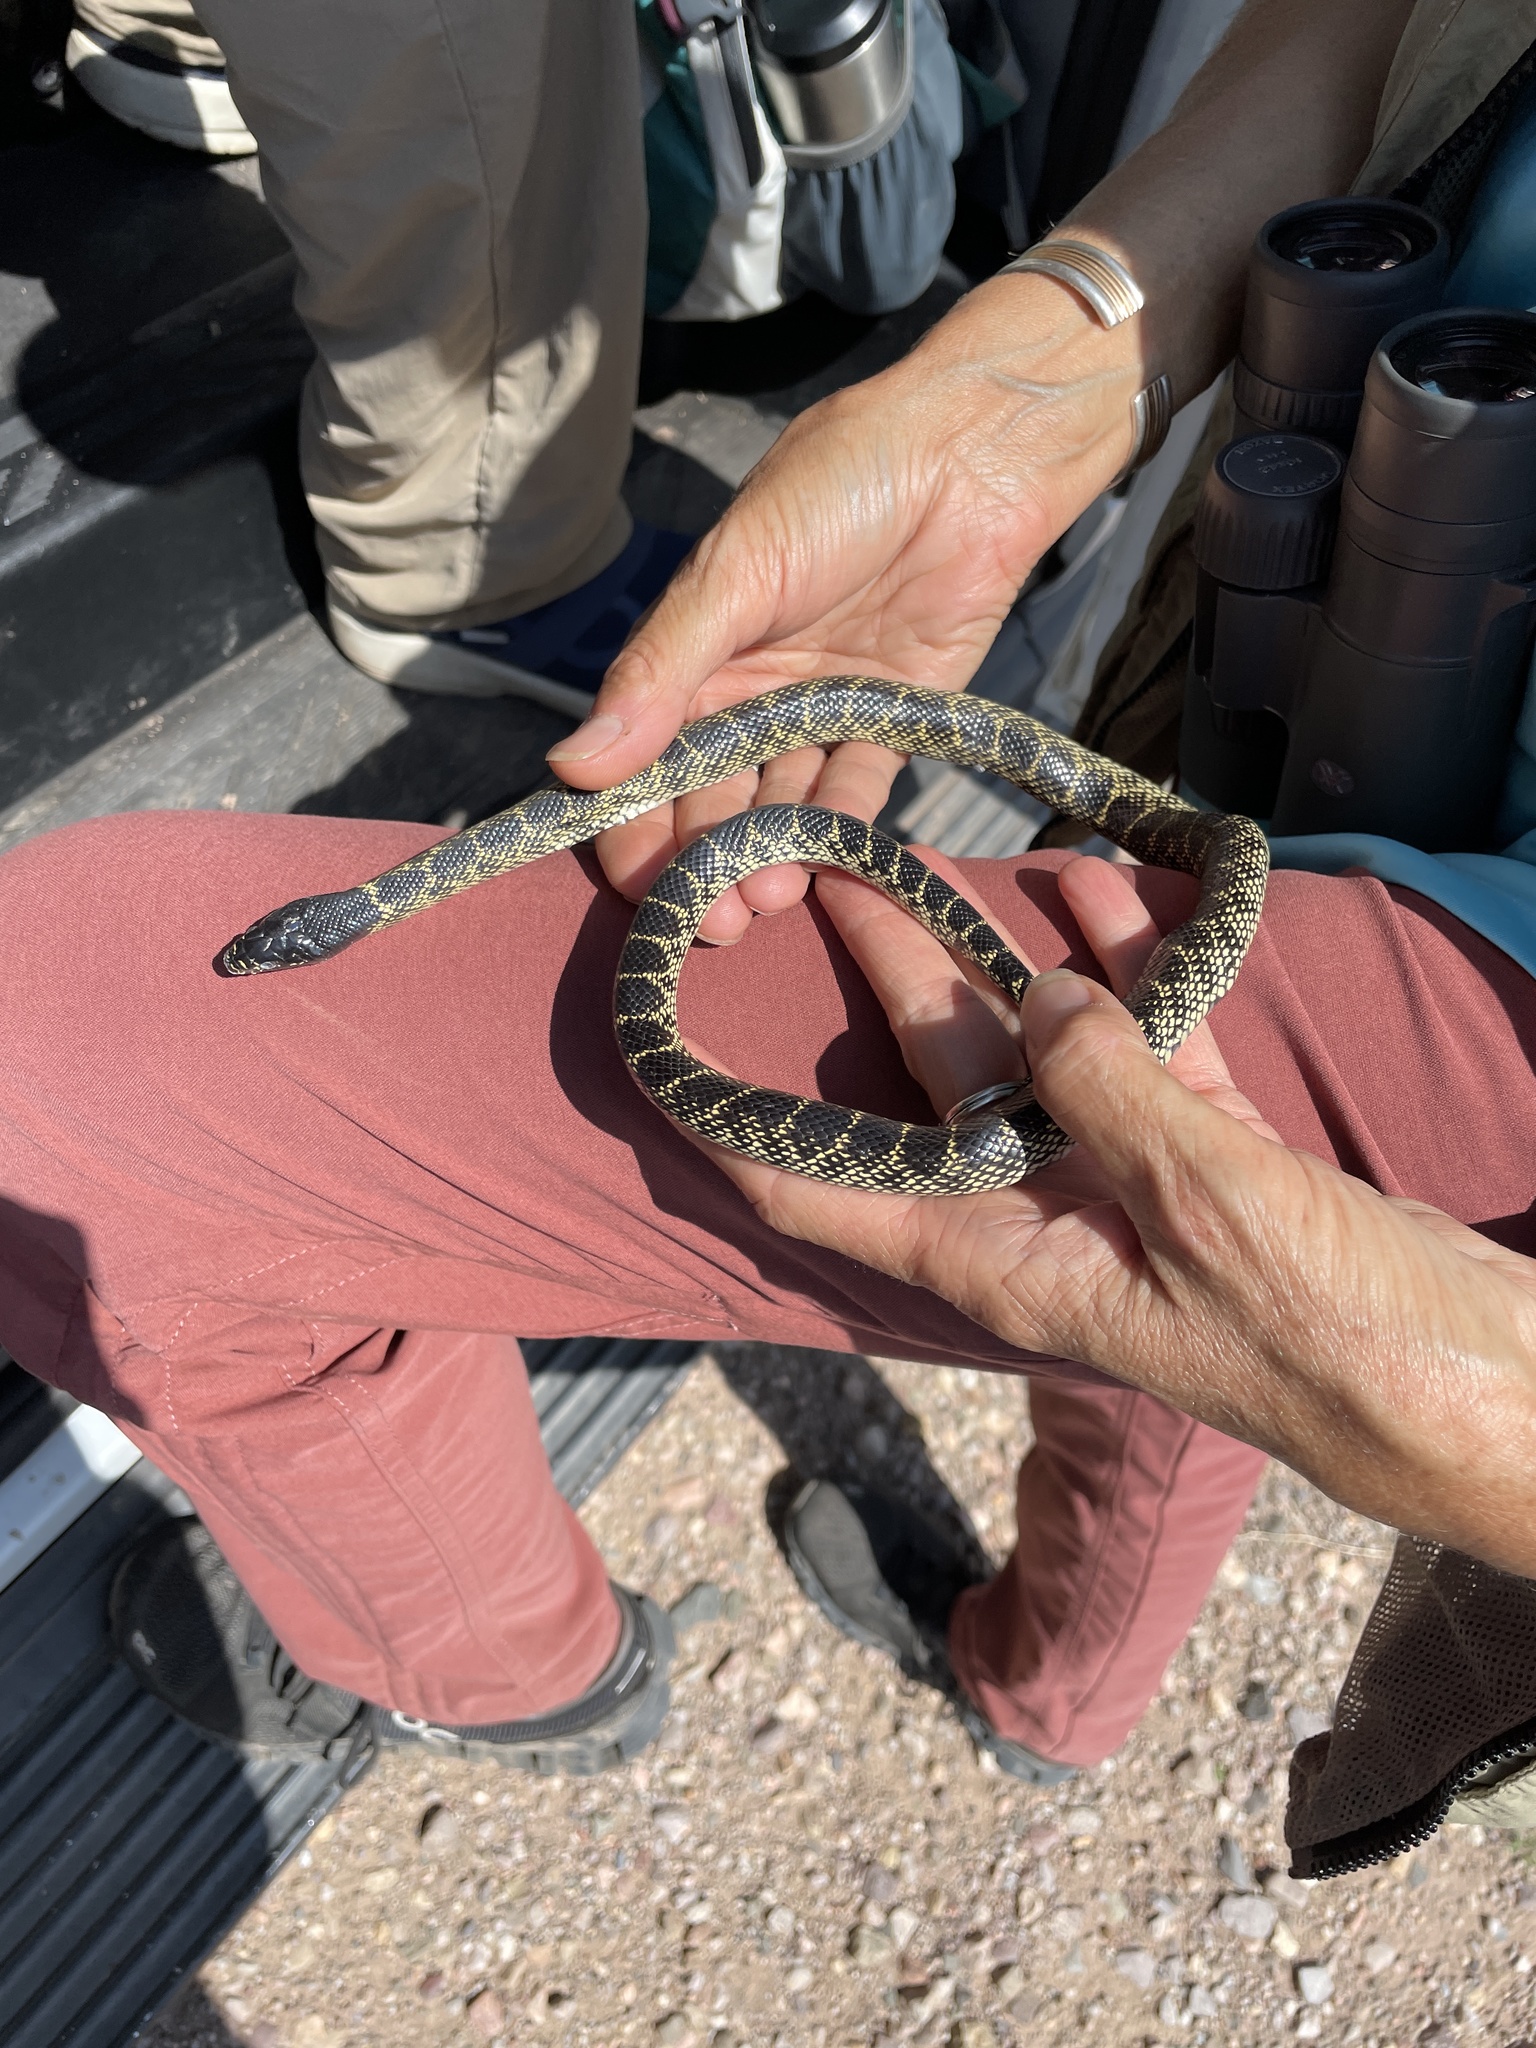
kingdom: Animalia
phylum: Chordata
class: Squamata
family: Colubridae
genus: Lampropeltis
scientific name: Lampropeltis splendida
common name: Desert kingsnake
